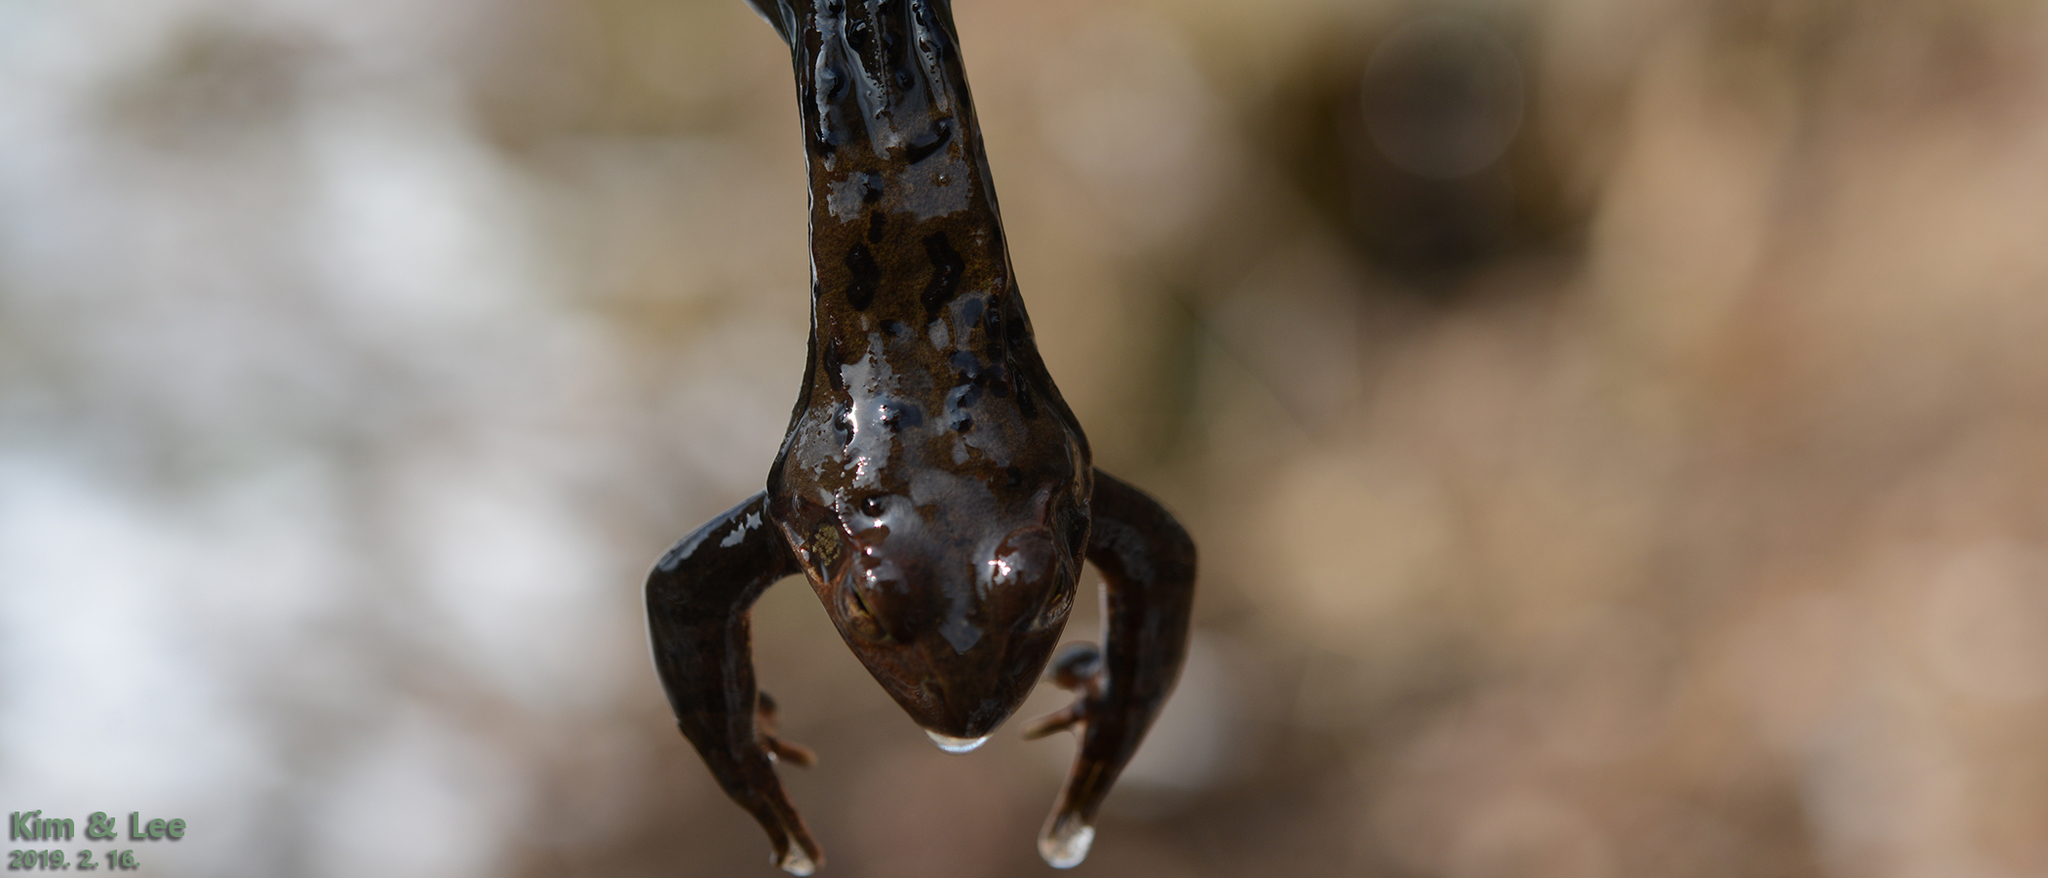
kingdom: Animalia
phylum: Chordata
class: Amphibia
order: Anura
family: Ranidae
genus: Rana
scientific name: Rana dybowskii
